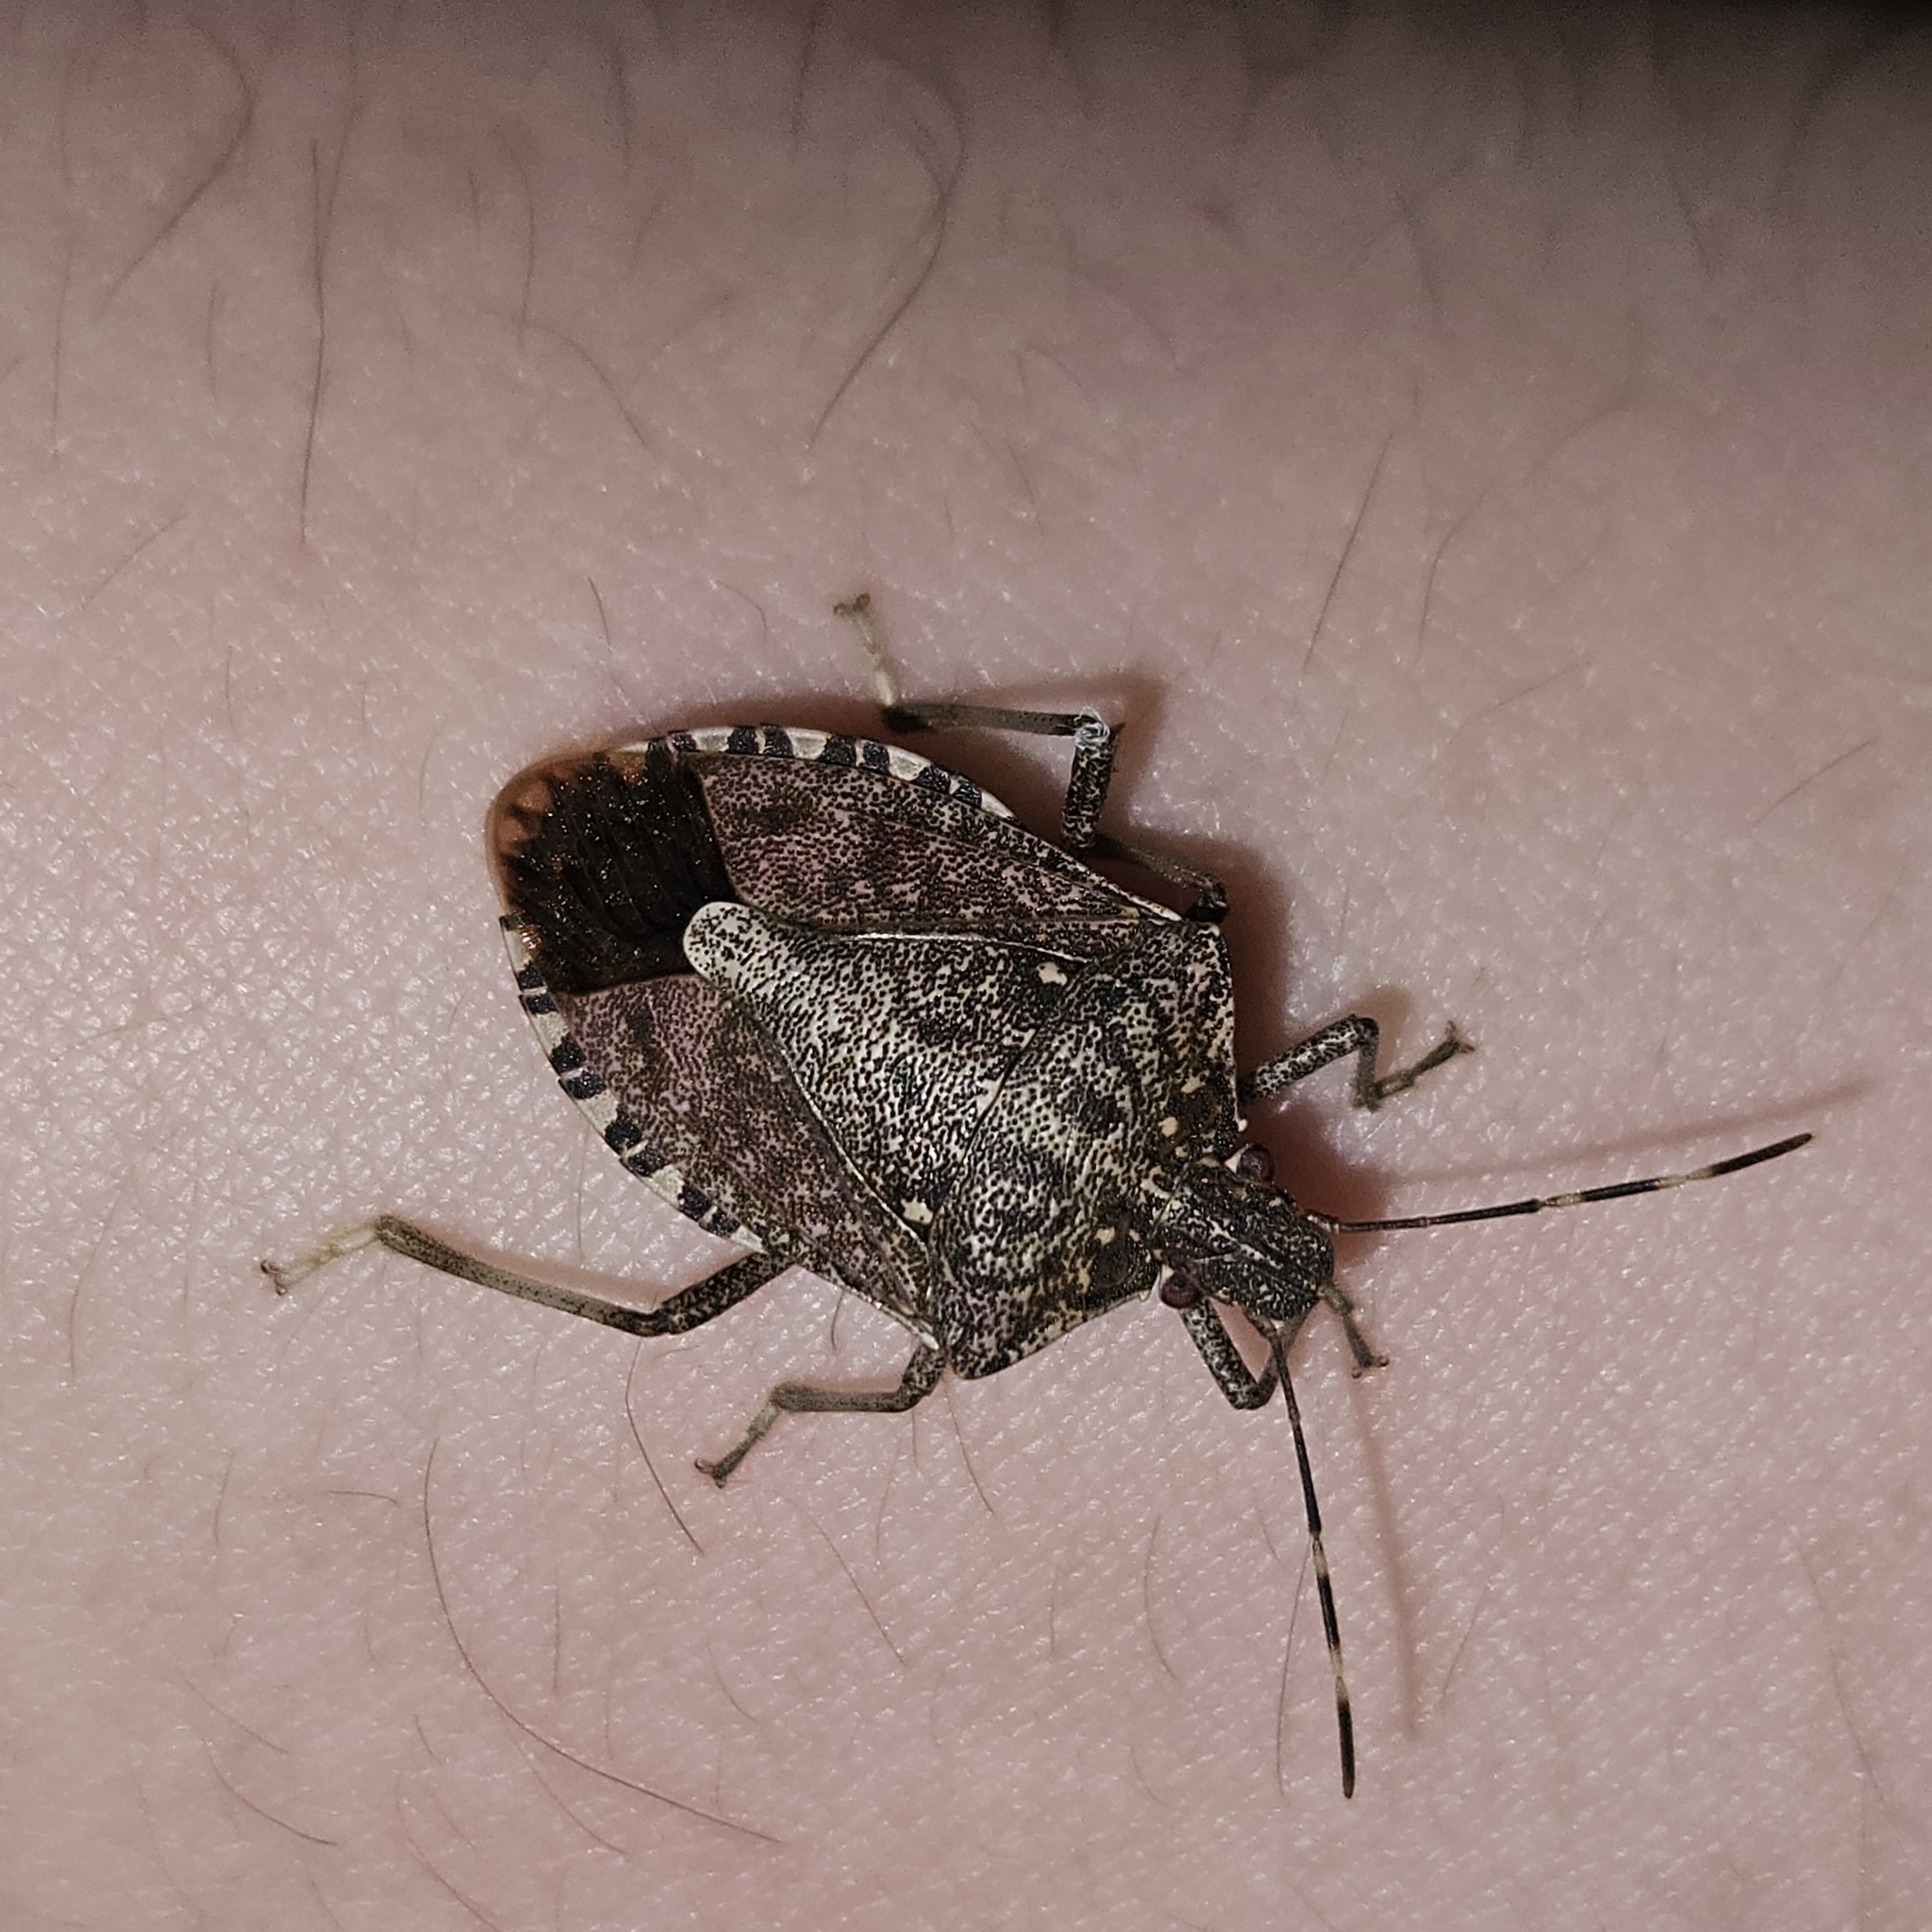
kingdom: Animalia
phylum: Arthropoda
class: Insecta
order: Hemiptera
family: Pentatomidae
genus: Halyomorpha
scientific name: Halyomorpha halys
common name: Brown marmorated stink bug
